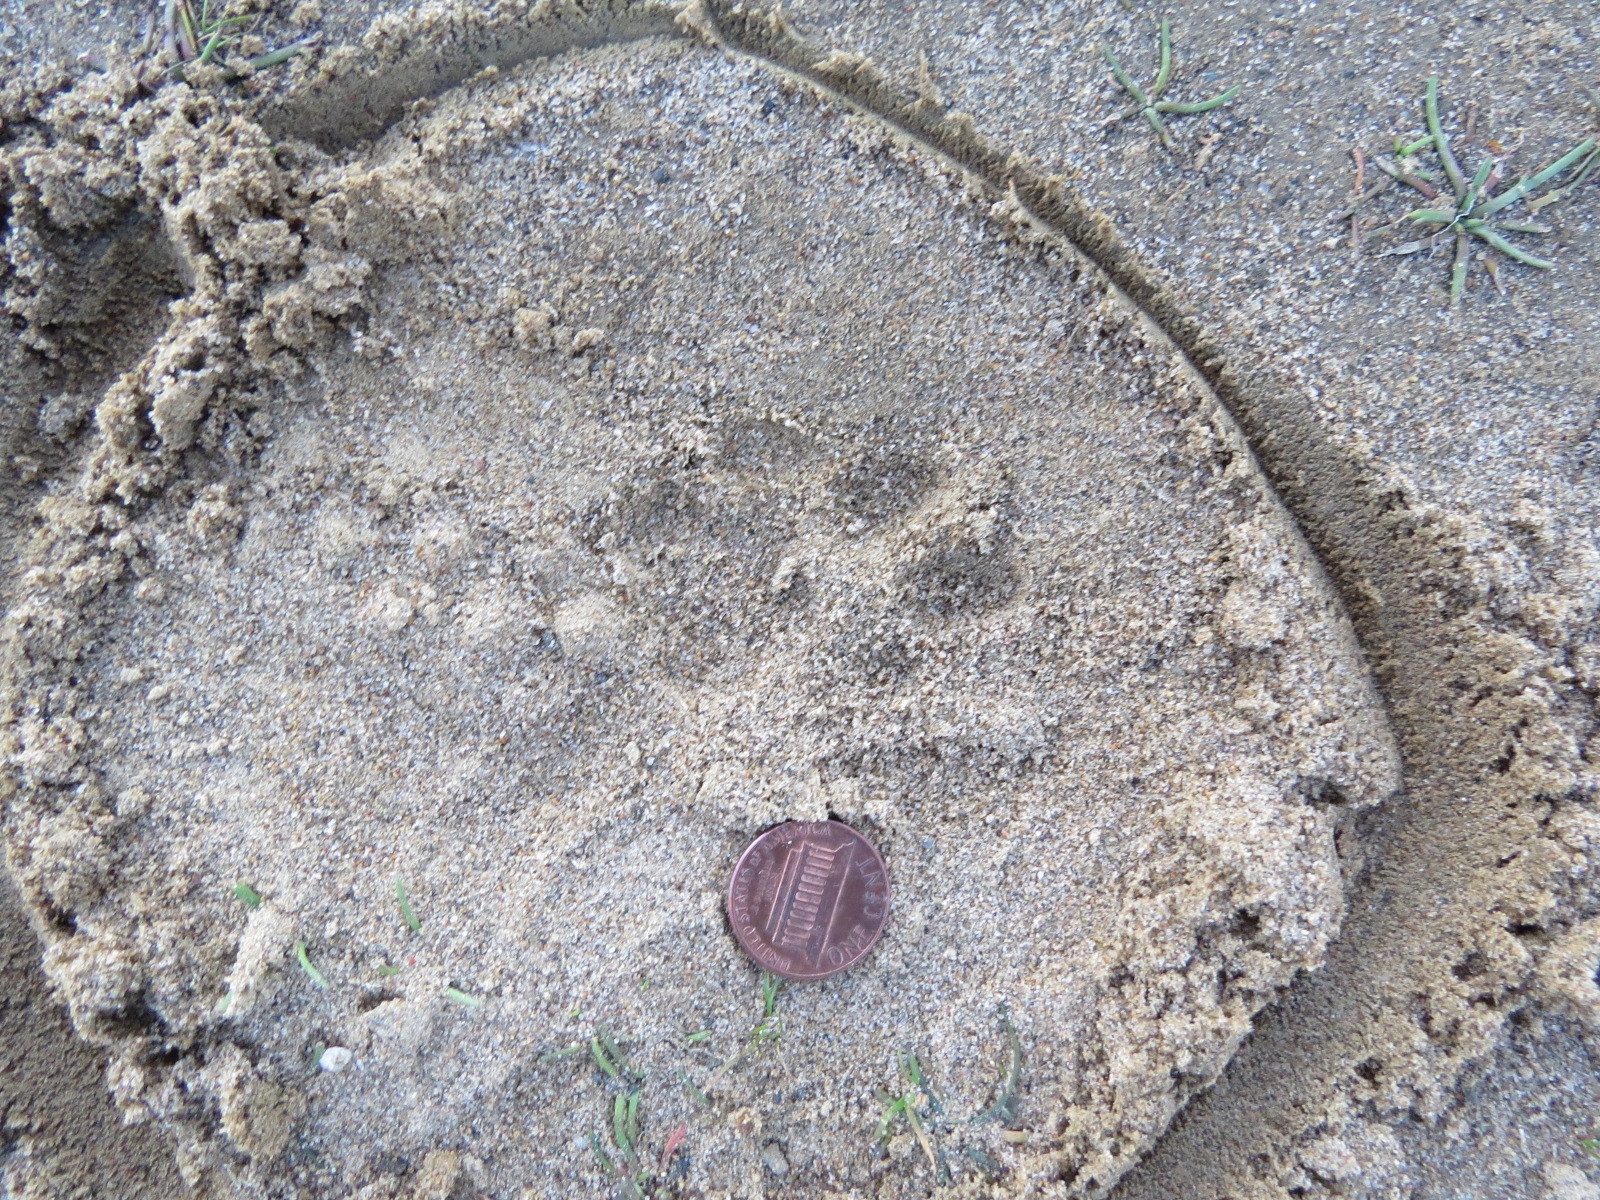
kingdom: Animalia
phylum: Chordata
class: Mammalia
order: Carnivora
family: Felidae
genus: Lynx
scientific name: Lynx rufus
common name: Bobcat
